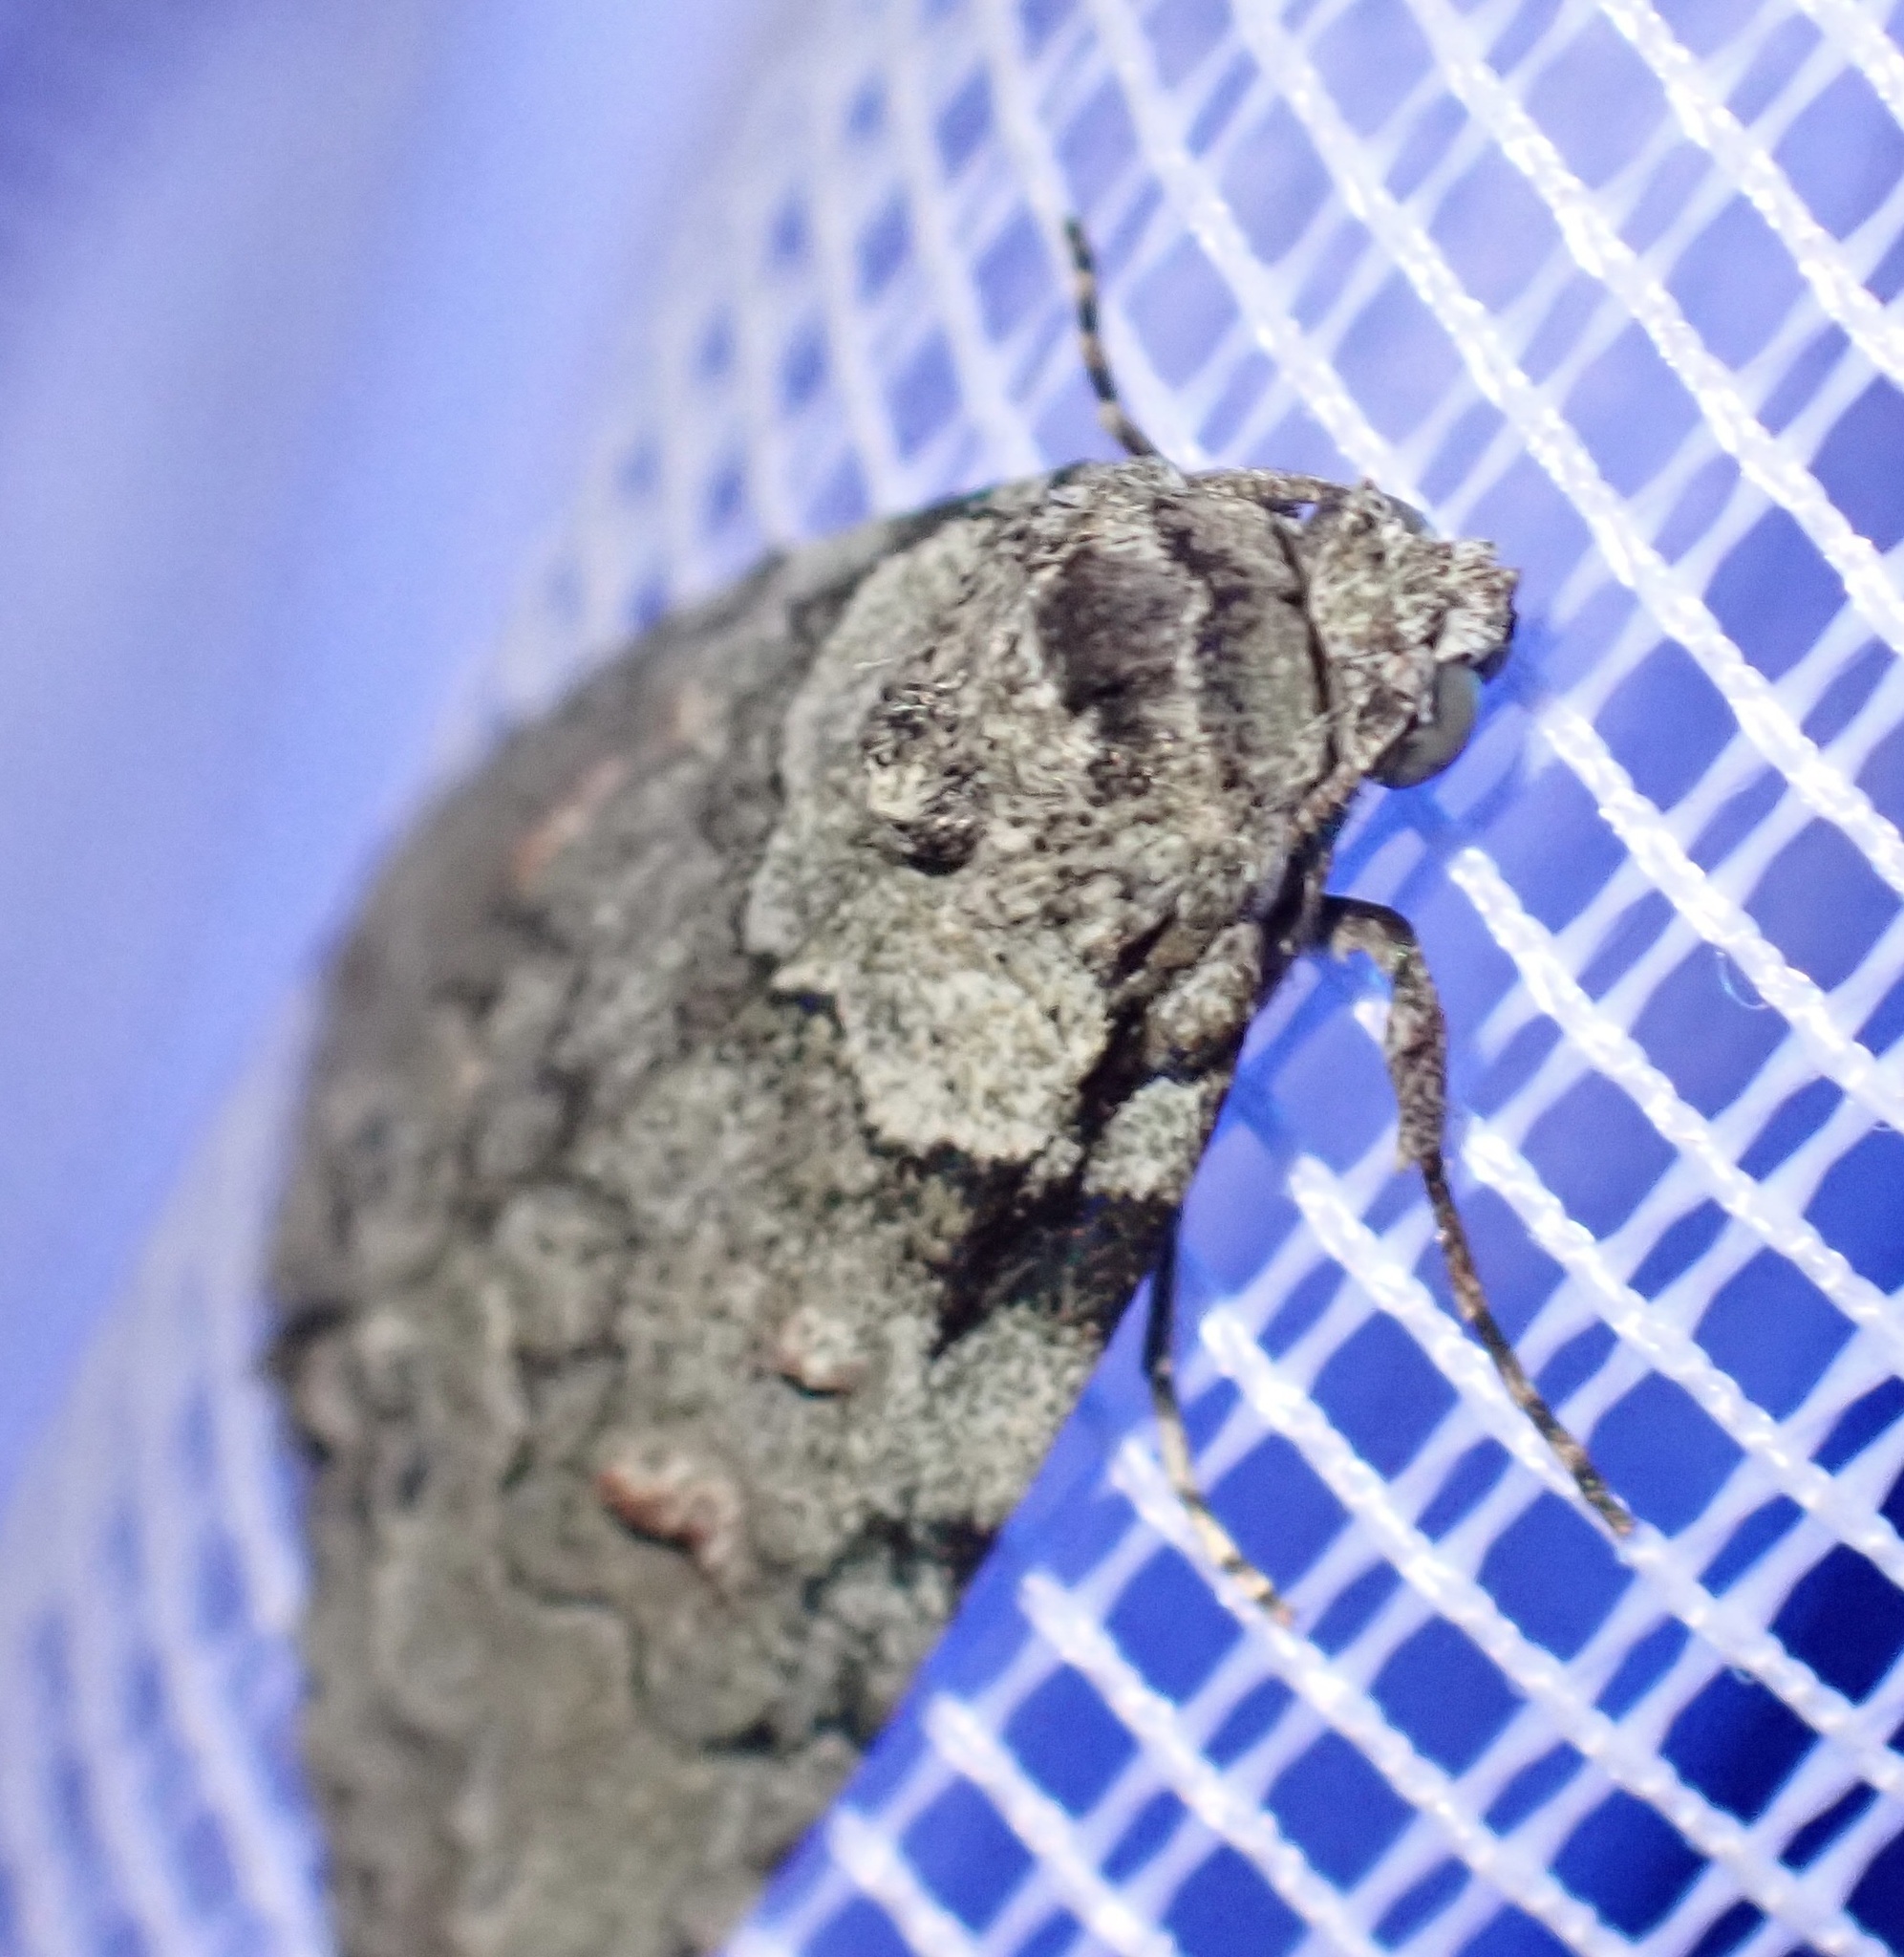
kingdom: Animalia
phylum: Arthropoda
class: Insecta
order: Lepidoptera
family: Nolidae
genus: Calathusa
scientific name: Calathusa basicunea
